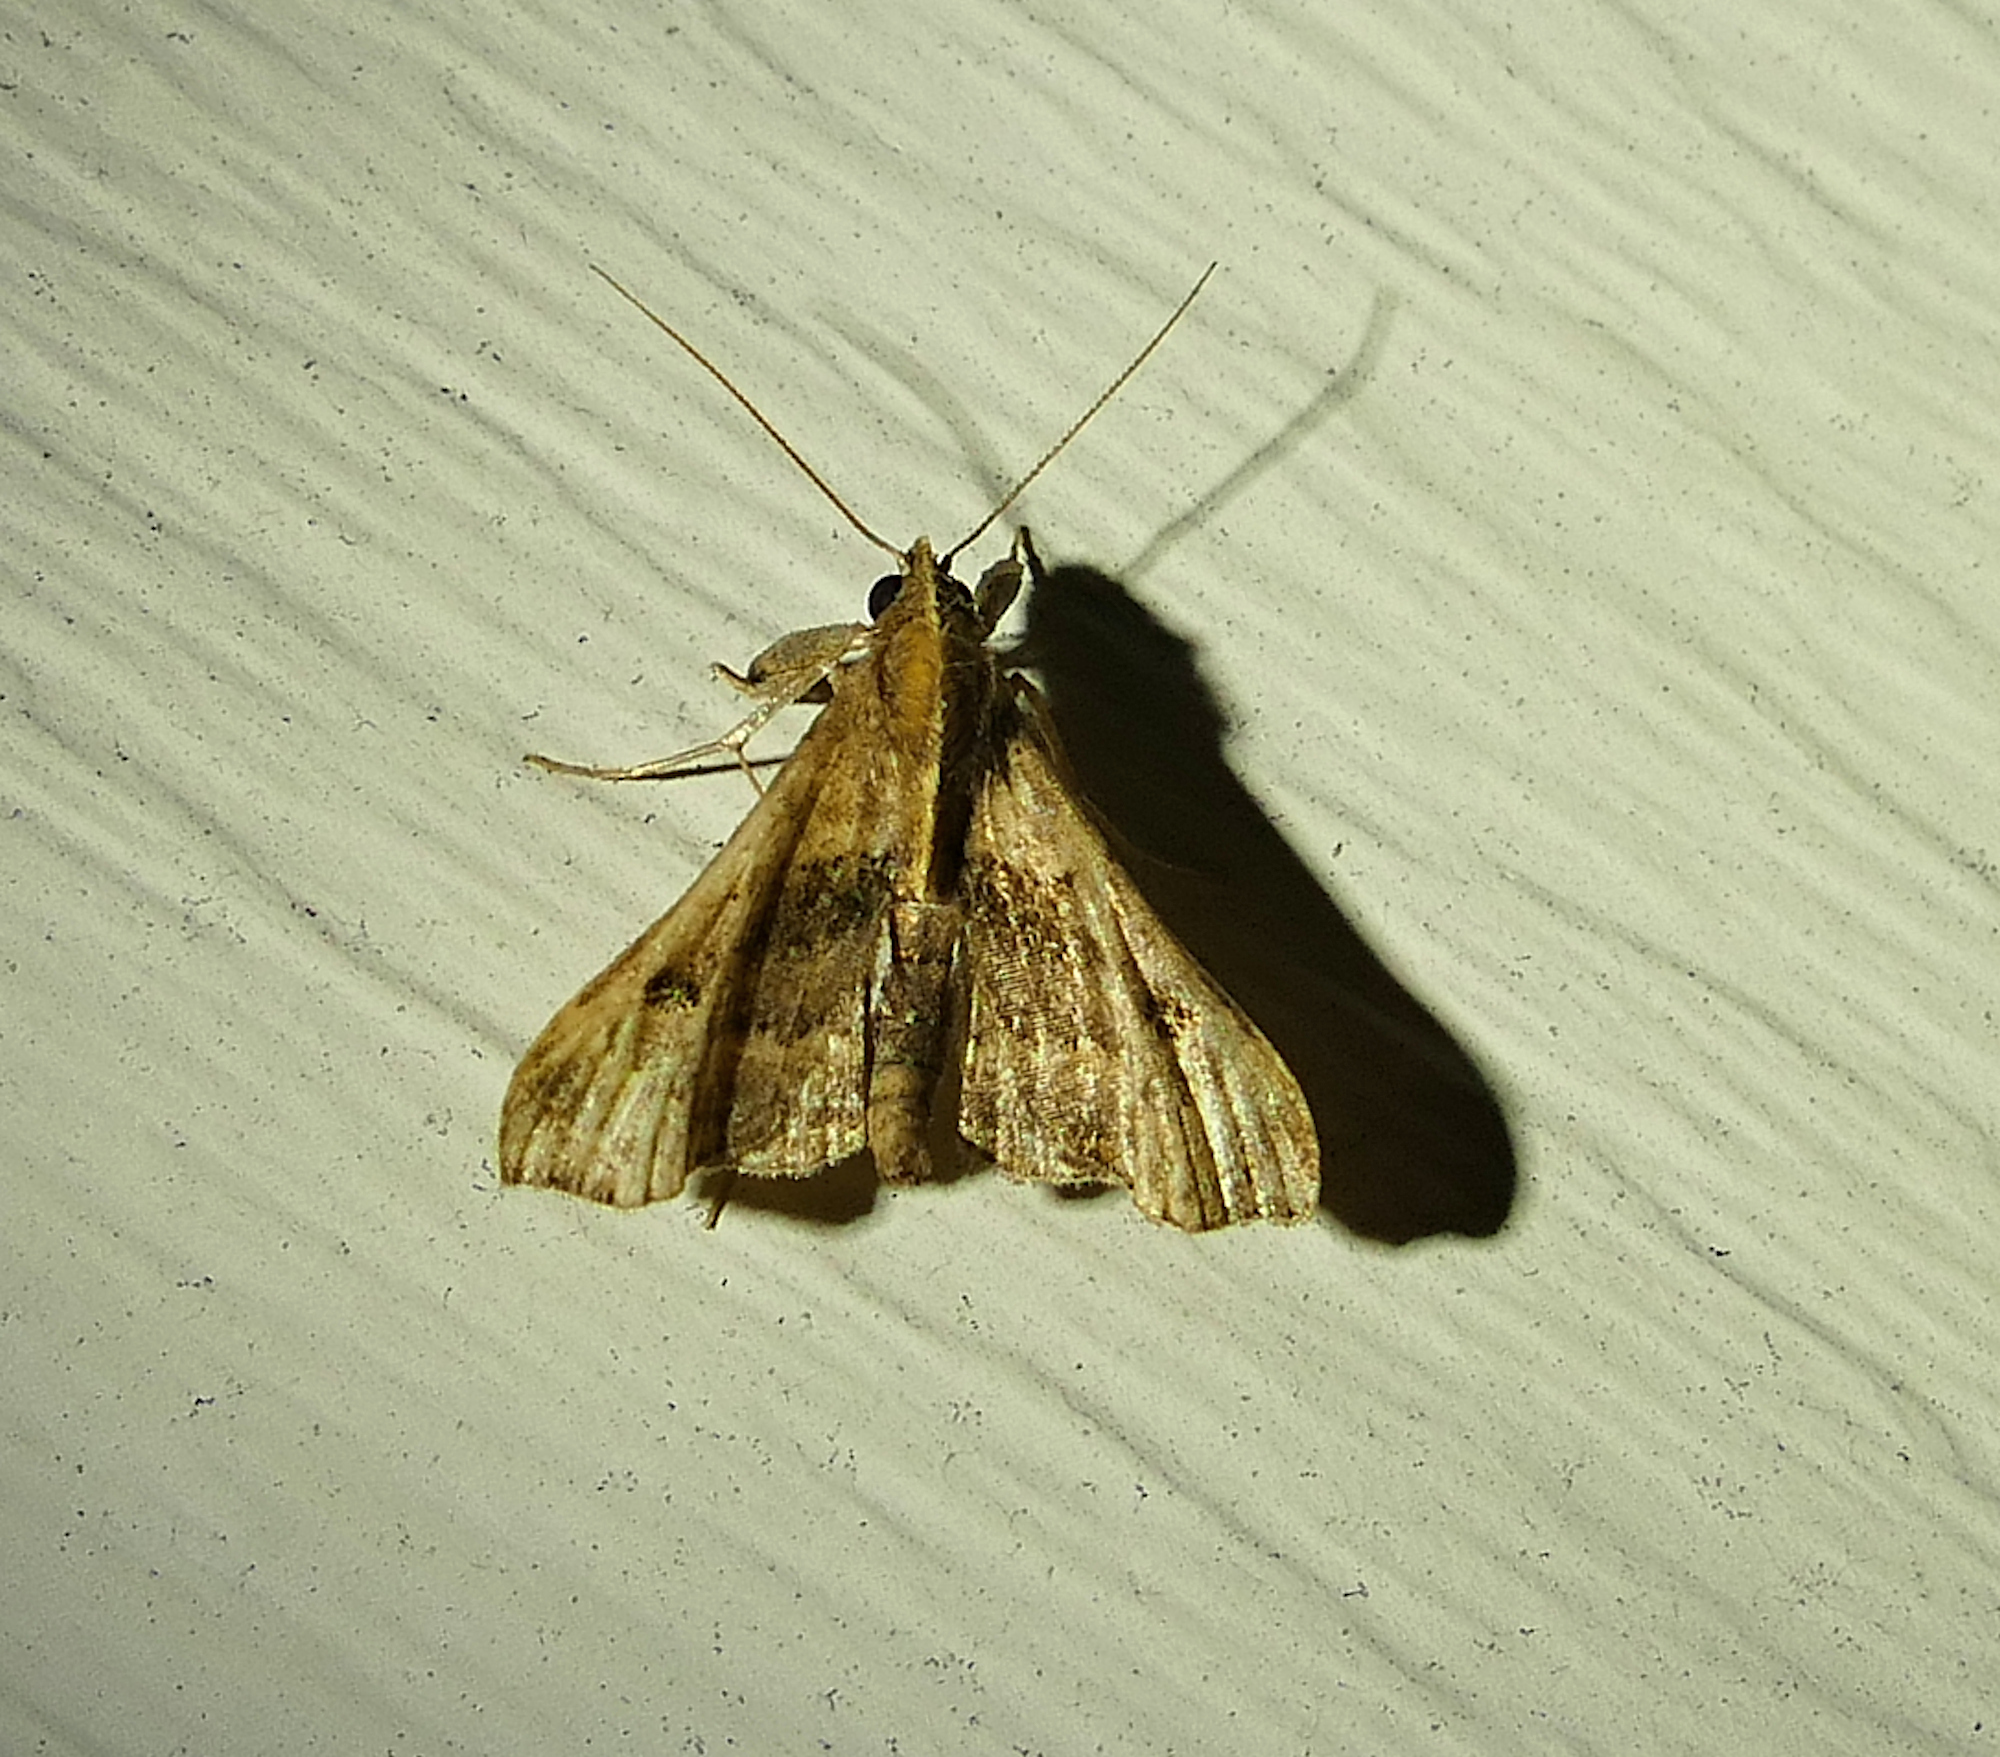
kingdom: Animalia
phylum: Arthropoda
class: Insecta
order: Lepidoptera
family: Erebidae
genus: Palthis
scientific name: Palthis asopialis
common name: Faint-spotted palthis moth
